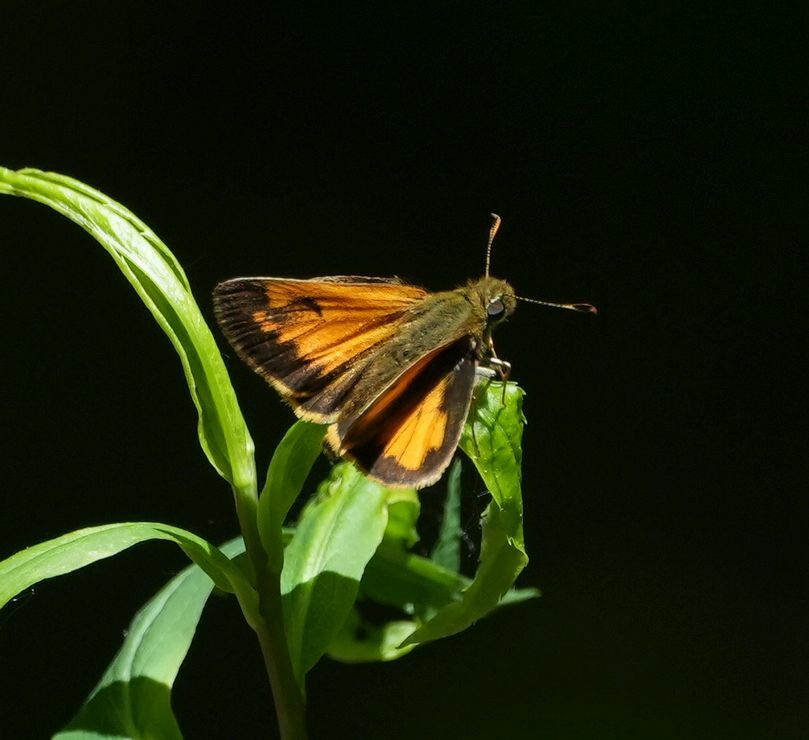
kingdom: Animalia
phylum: Arthropoda
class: Insecta
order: Lepidoptera
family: Hesperiidae
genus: Lon
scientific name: Lon hobomok
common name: Hobomok skipper
